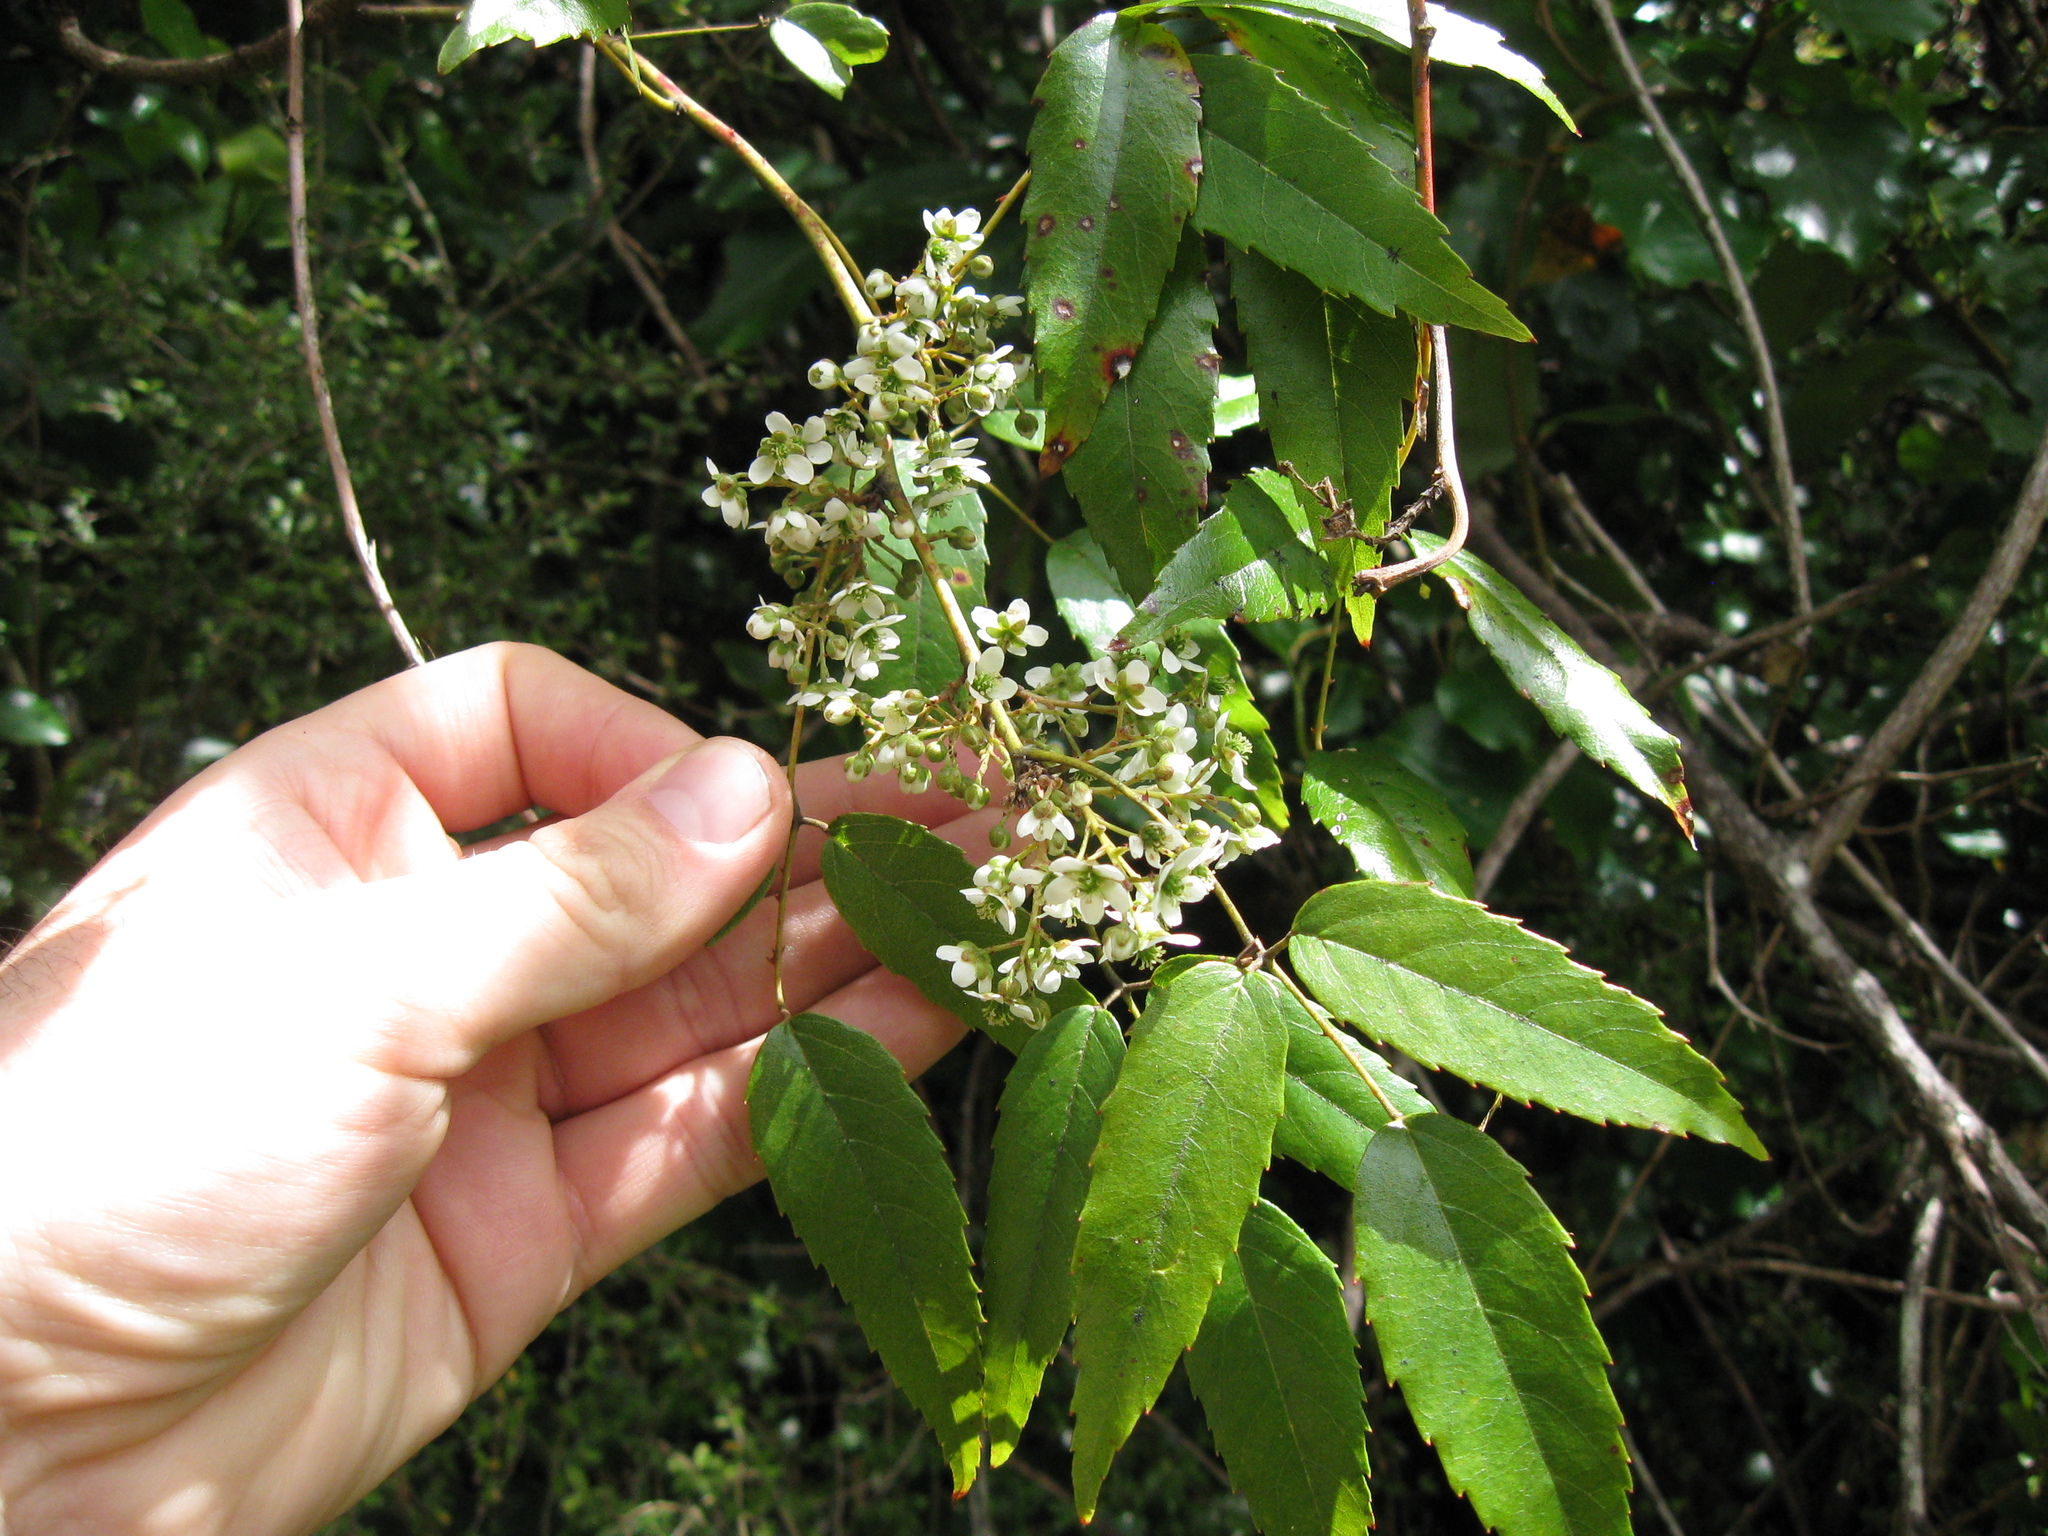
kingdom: Plantae
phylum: Tracheophyta
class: Magnoliopsida
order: Rosales
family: Rosaceae
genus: Rubus
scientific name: Rubus cissoides
